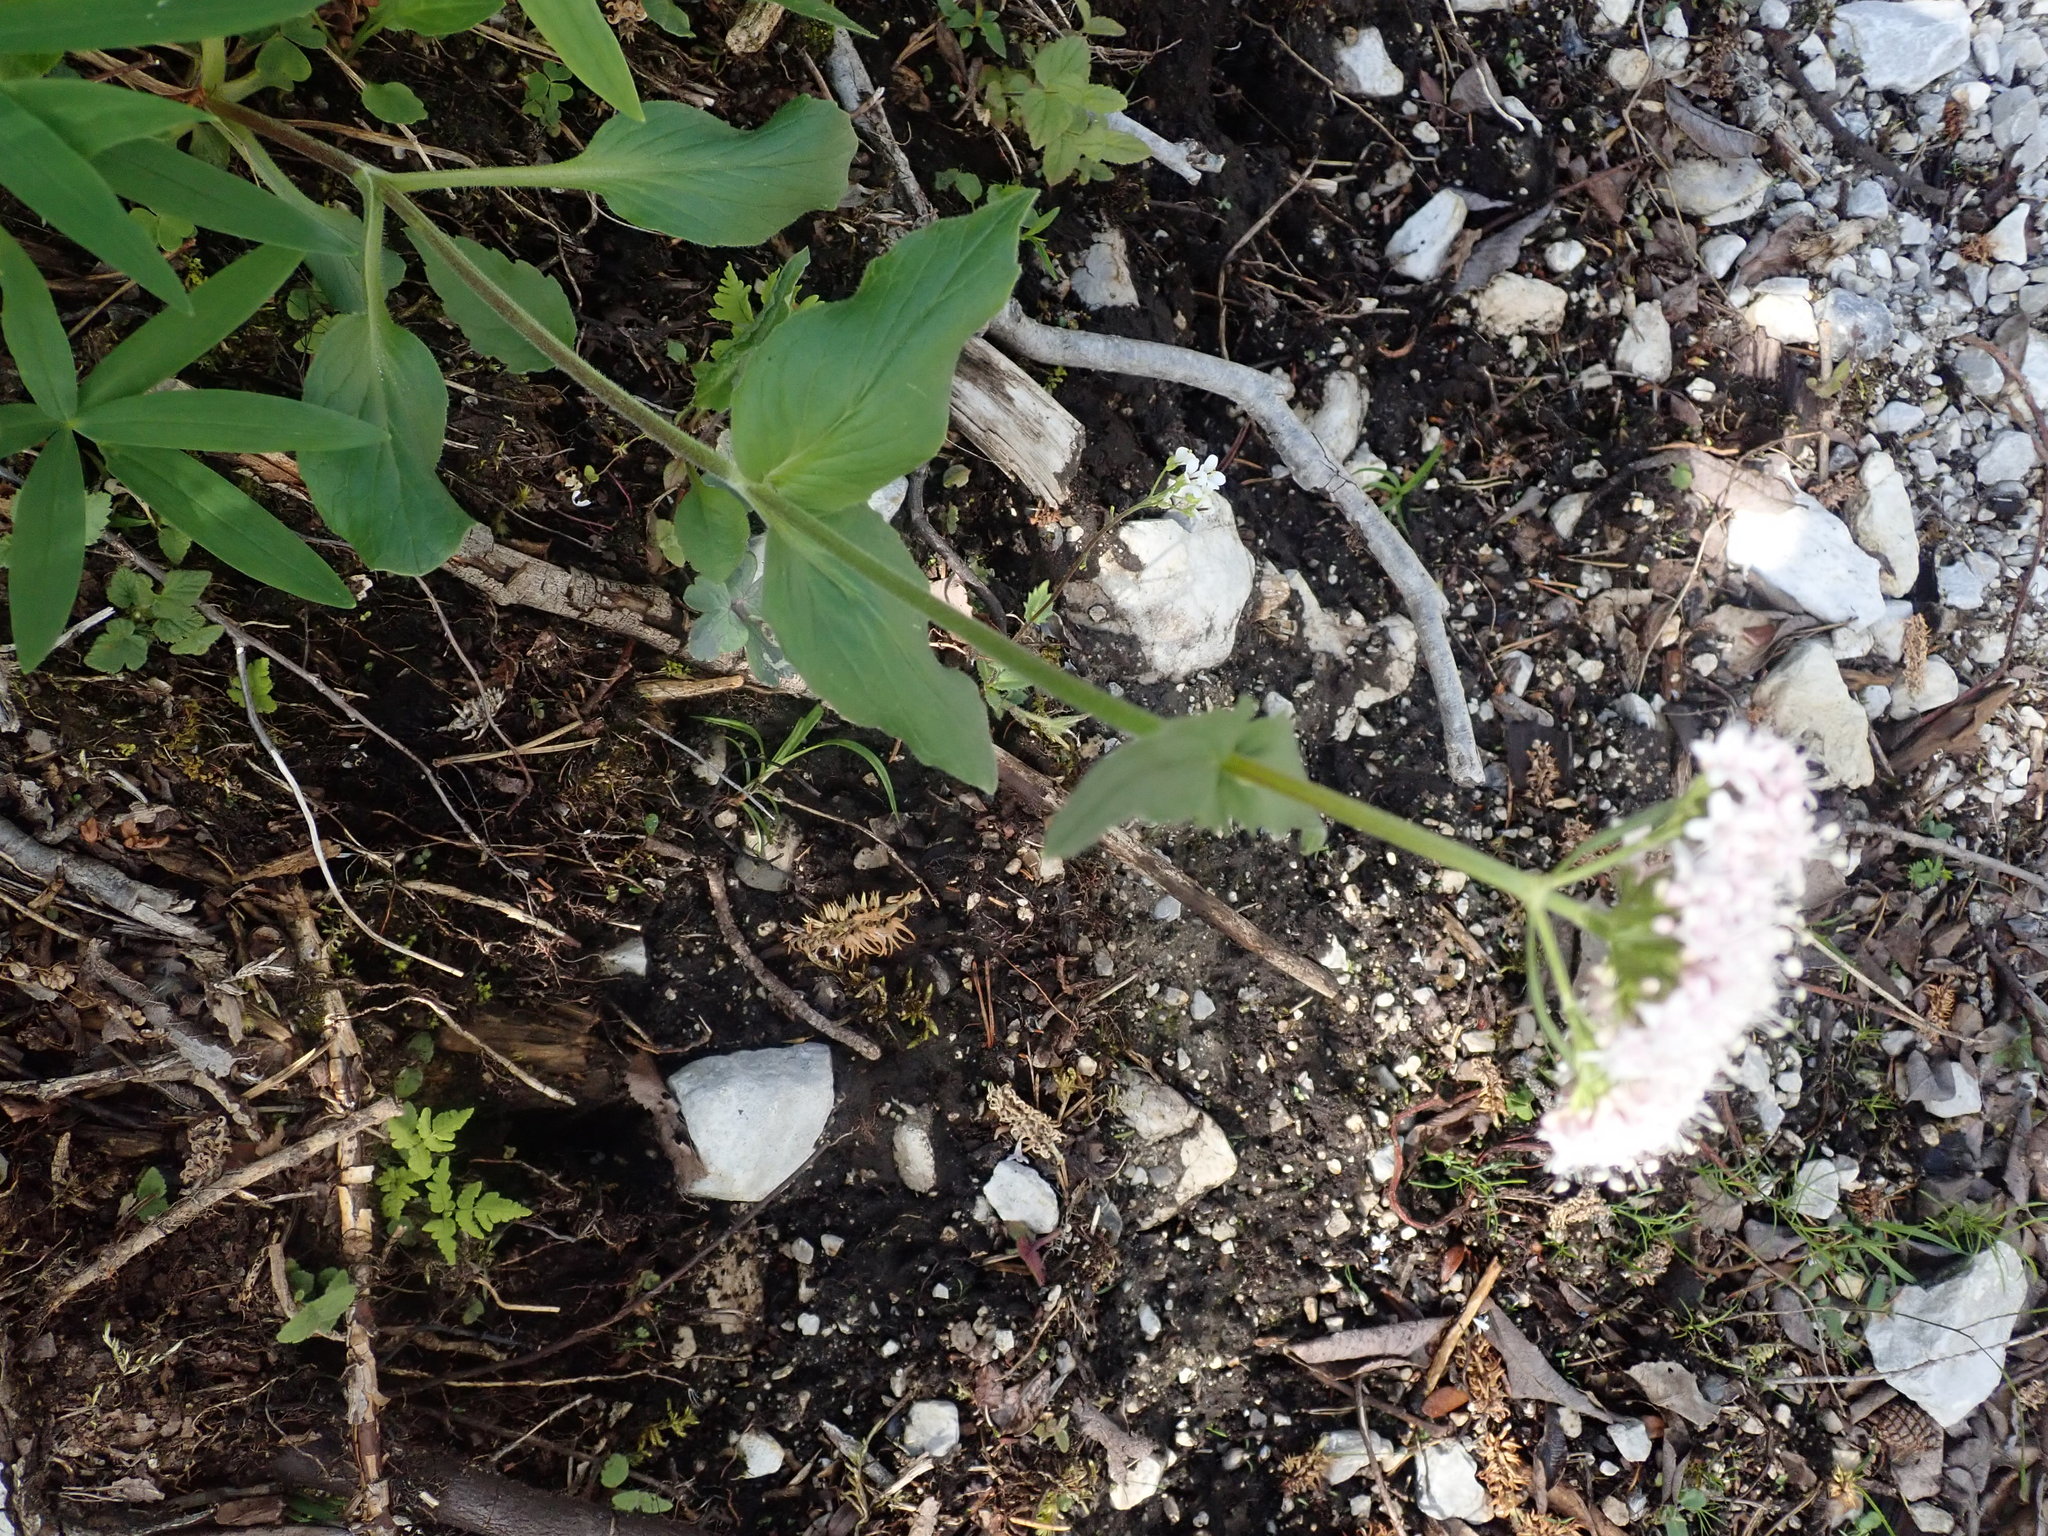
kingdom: Plantae
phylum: Tracheophyta
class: Magnoliopsida
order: Dipsacales
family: Caprifoliaceae
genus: Valeriana
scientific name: Valeriana montana
